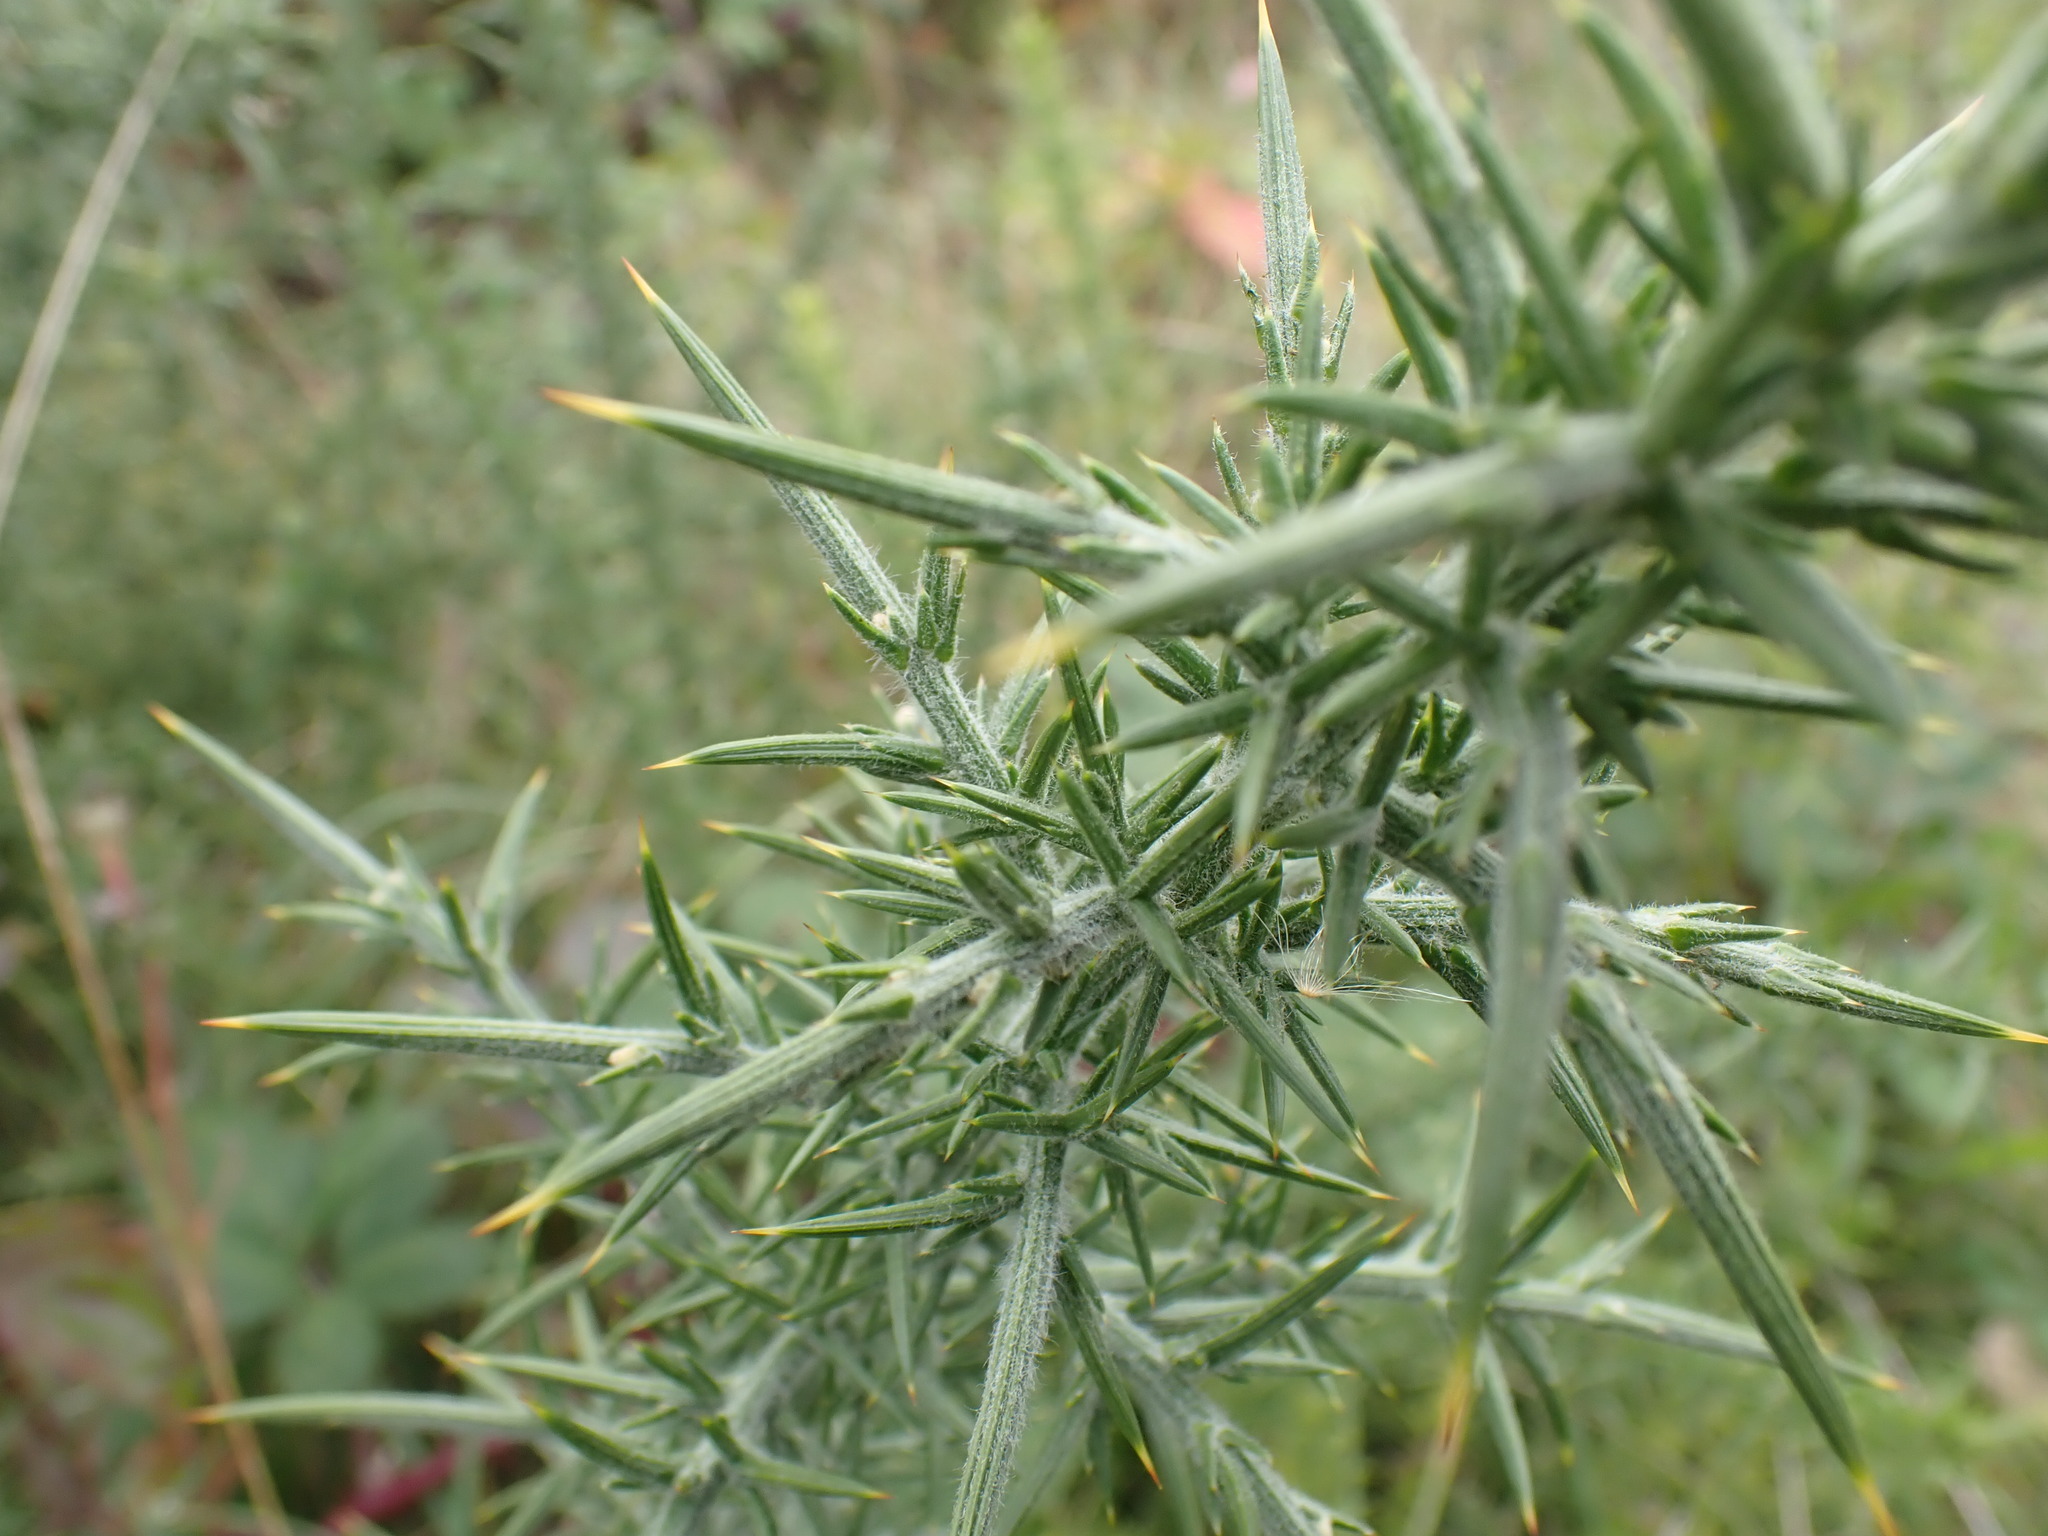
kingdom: Plantae
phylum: Tracheophyta
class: Magnoliopsida
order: Fabales
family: Fabaceae
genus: Ulex
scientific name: Ulex europaeus
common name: Common gorse
